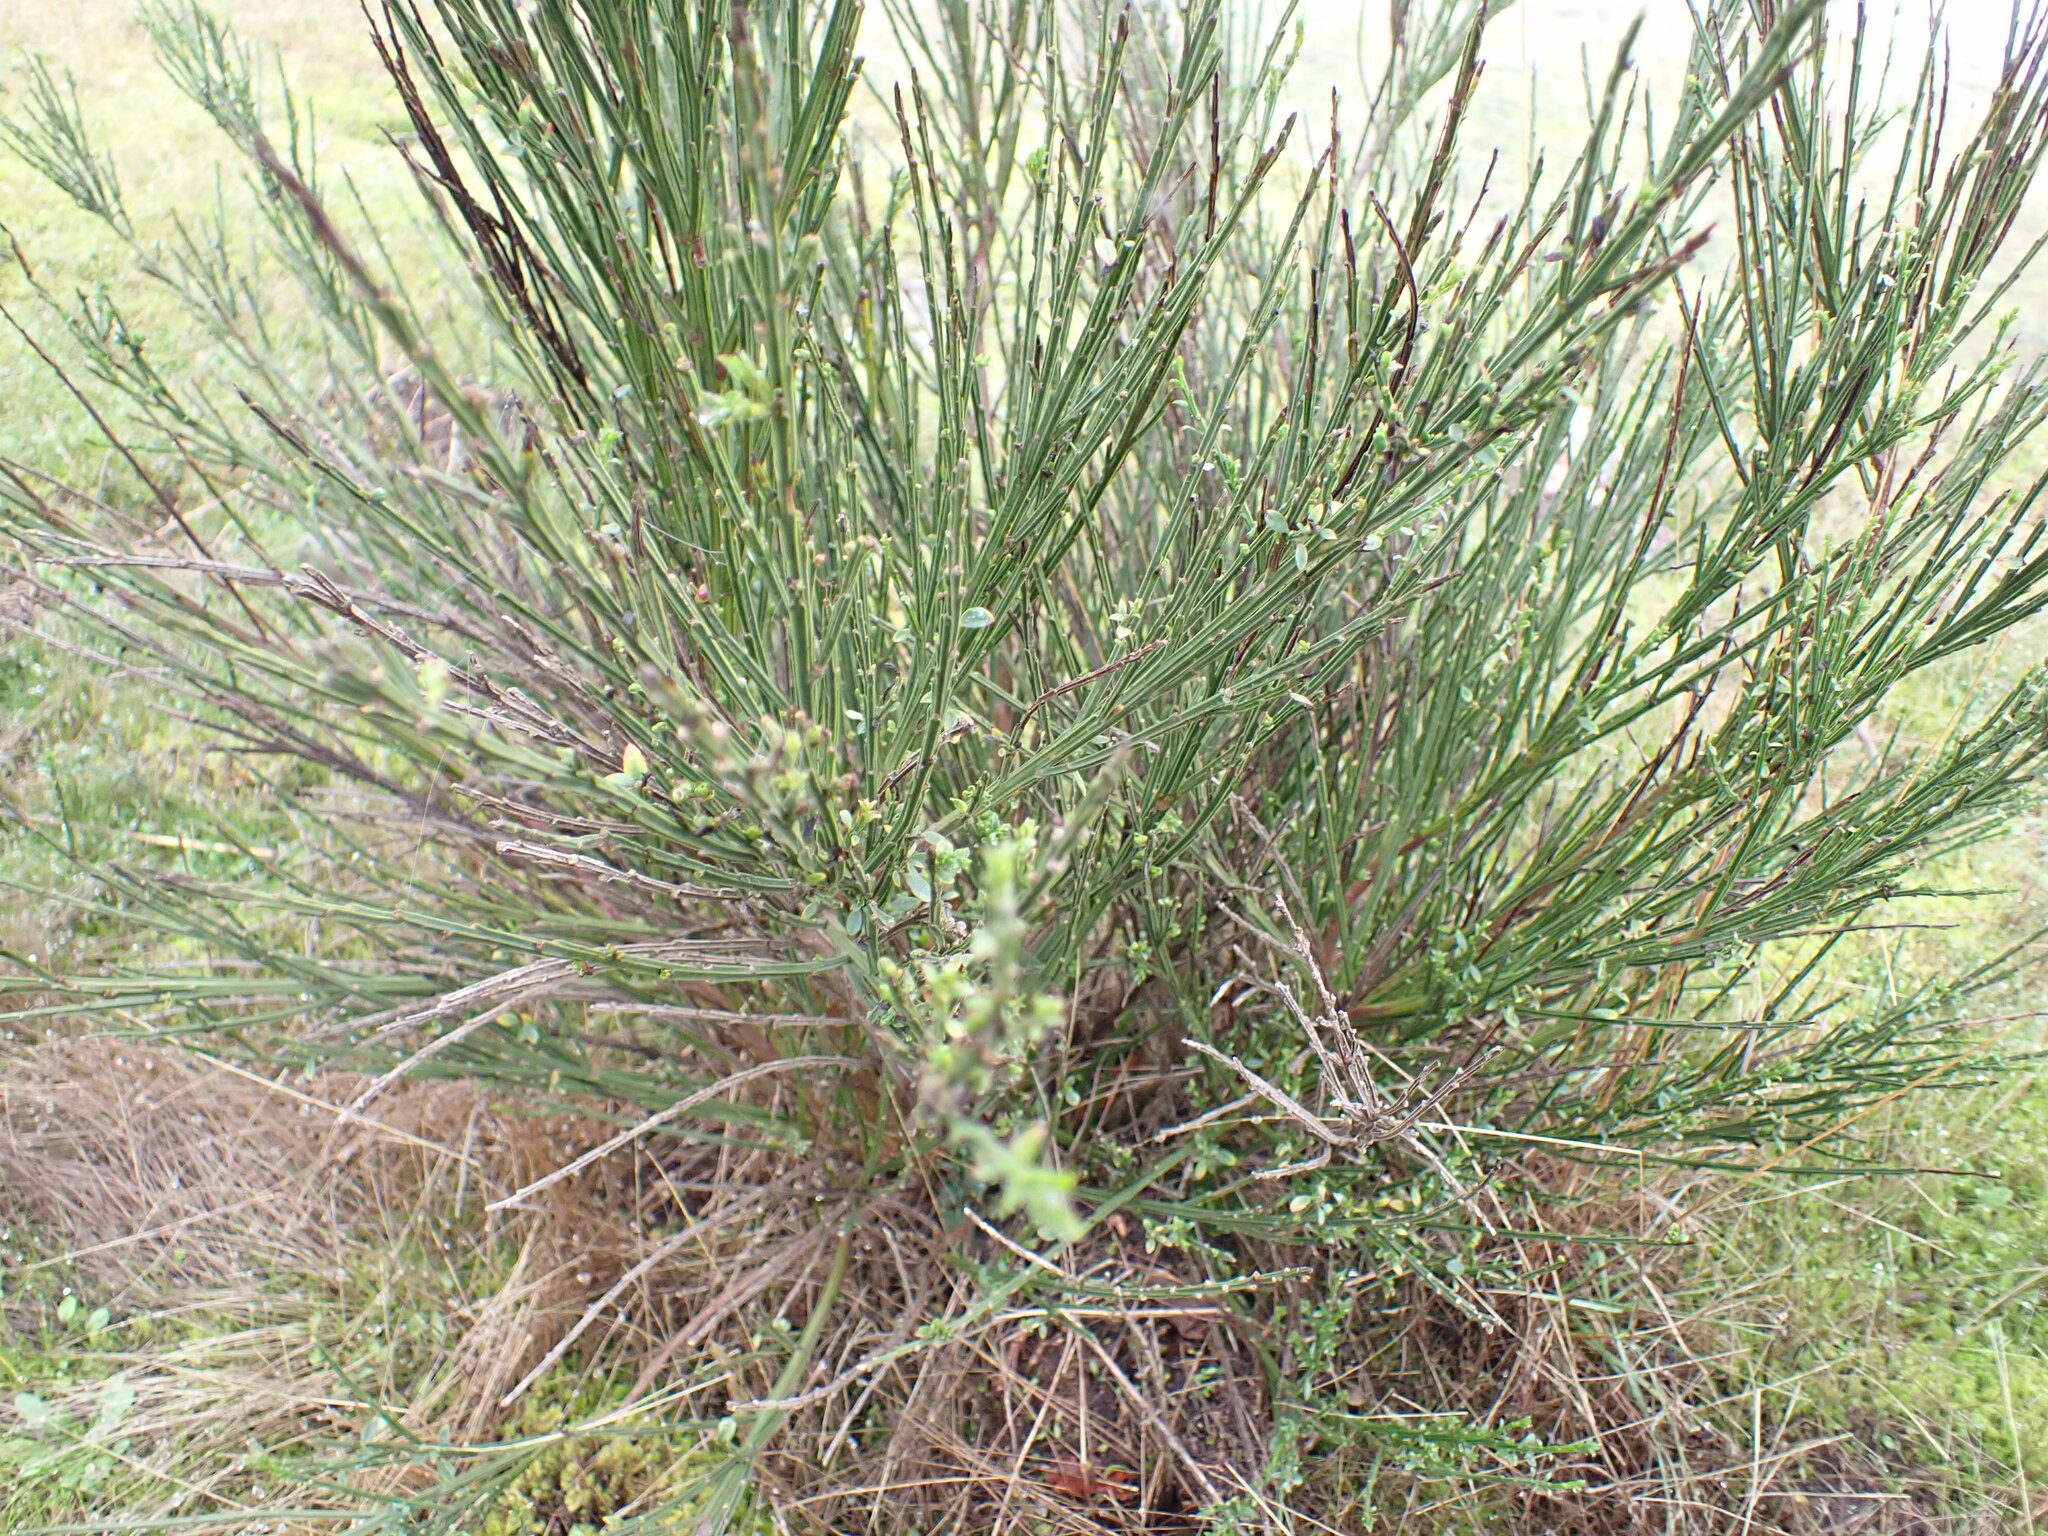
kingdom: Plantae
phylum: Tracheophyta
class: Magnoliopsida
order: Fabales
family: Fabaceae
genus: Cytisus
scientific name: Cytisus scoparius
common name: Scotch broom
